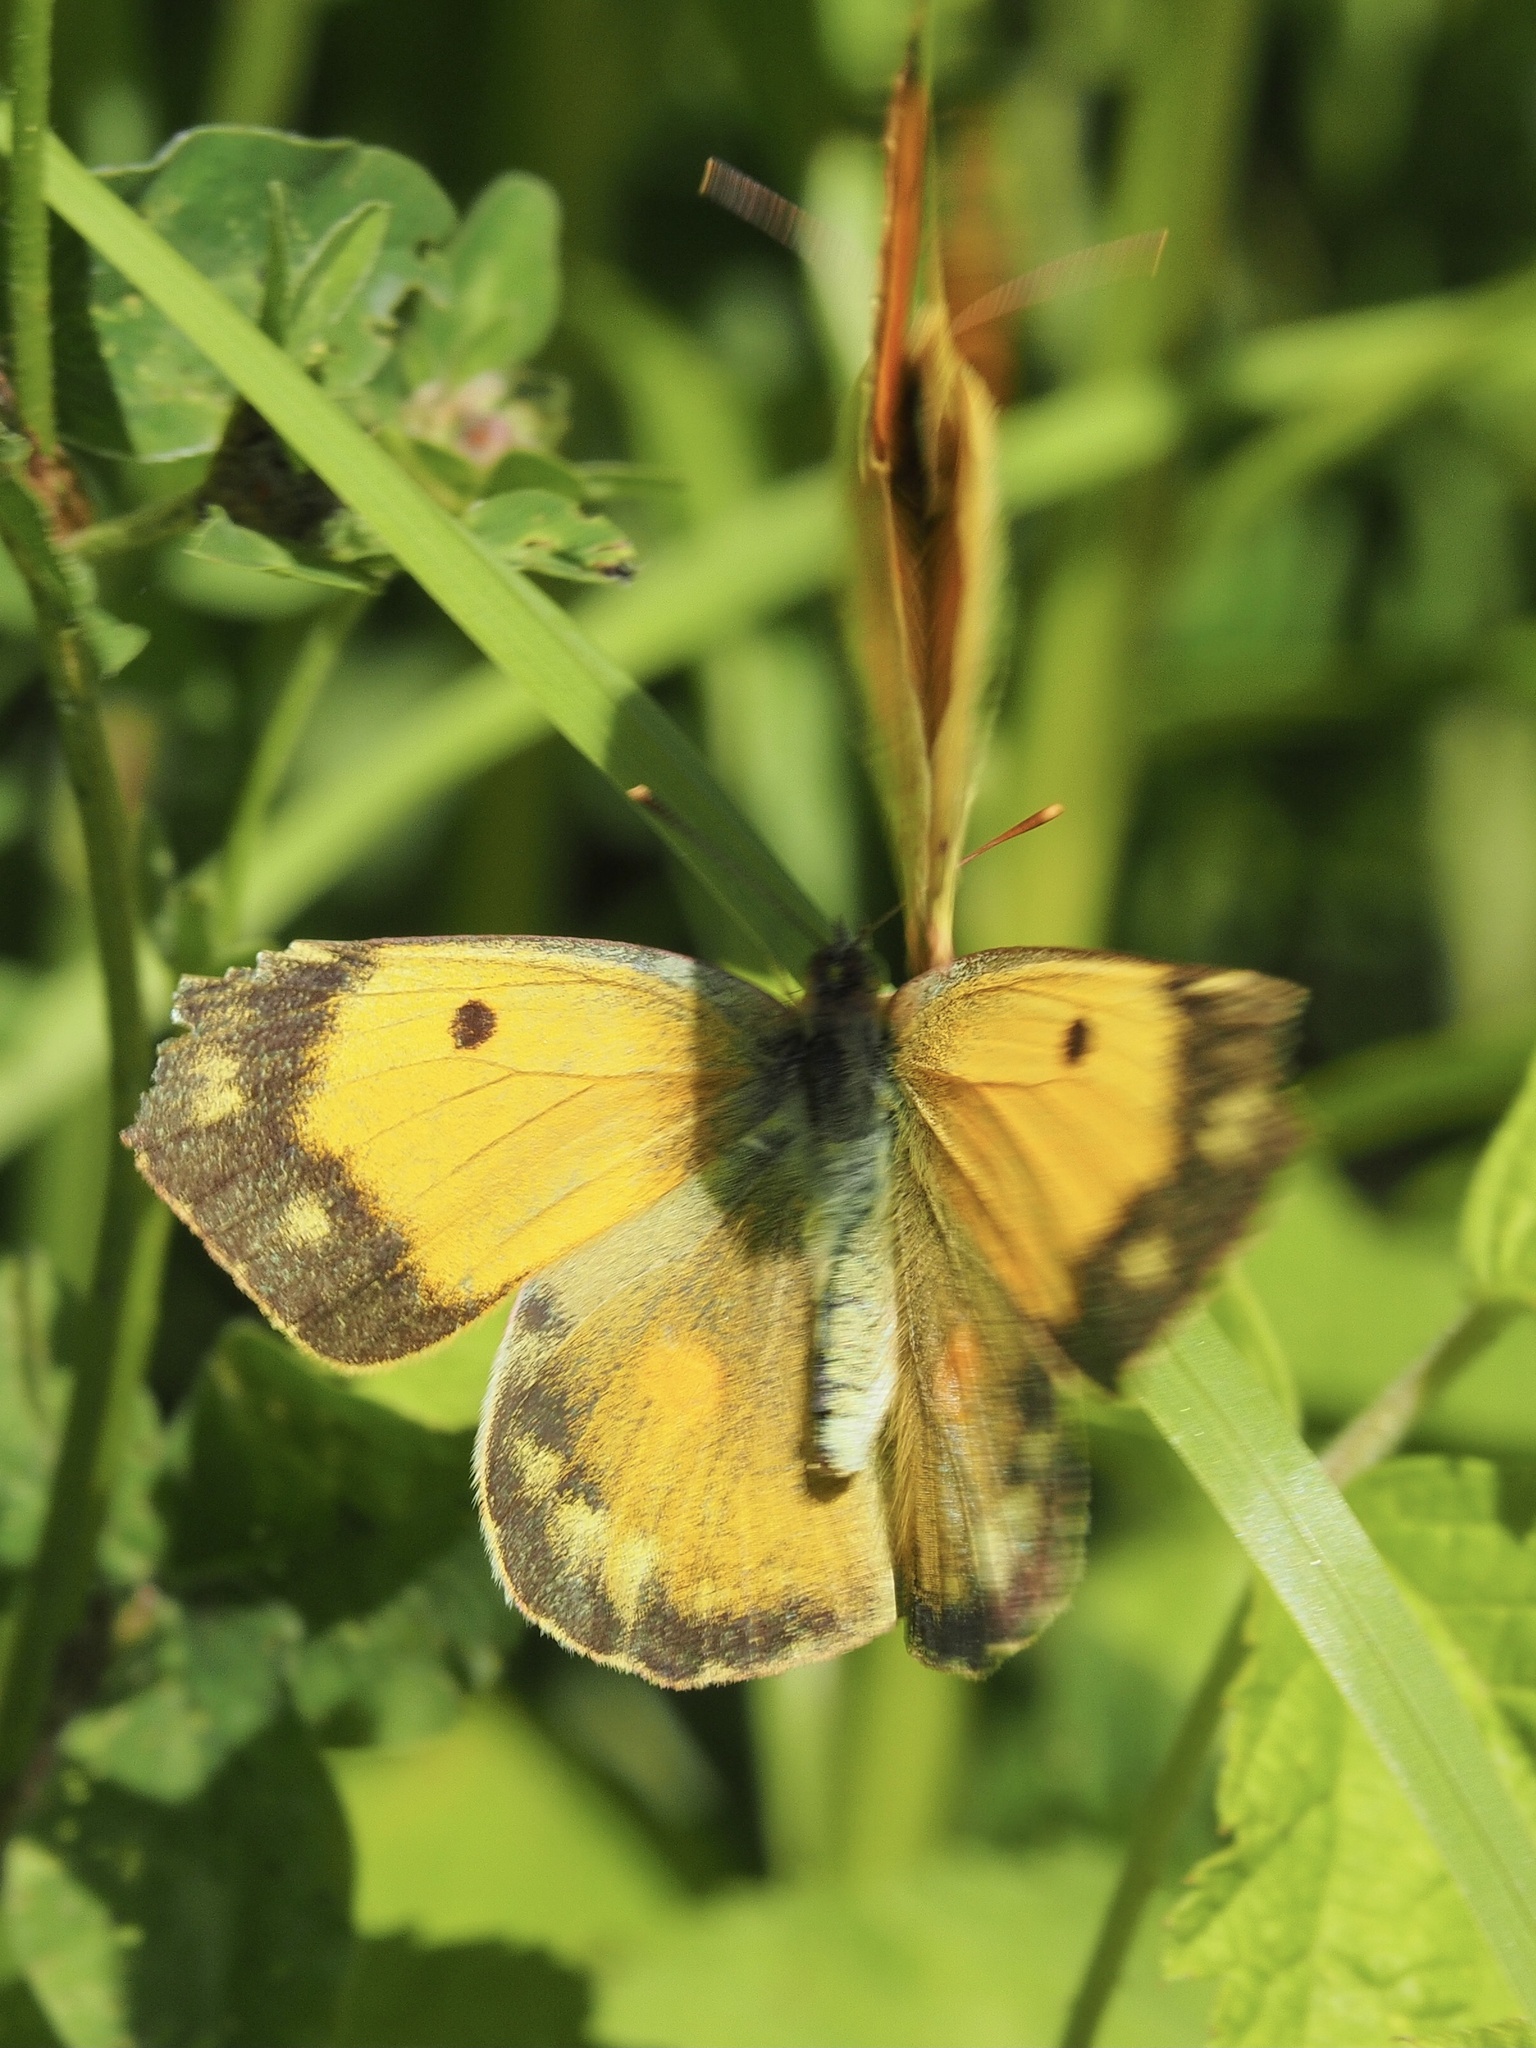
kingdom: Animalia
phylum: Arthropoda
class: Insecta
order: Lepidoptera
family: Pieridae
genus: Colias
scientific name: Colias croceus
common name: Clouded yellow
